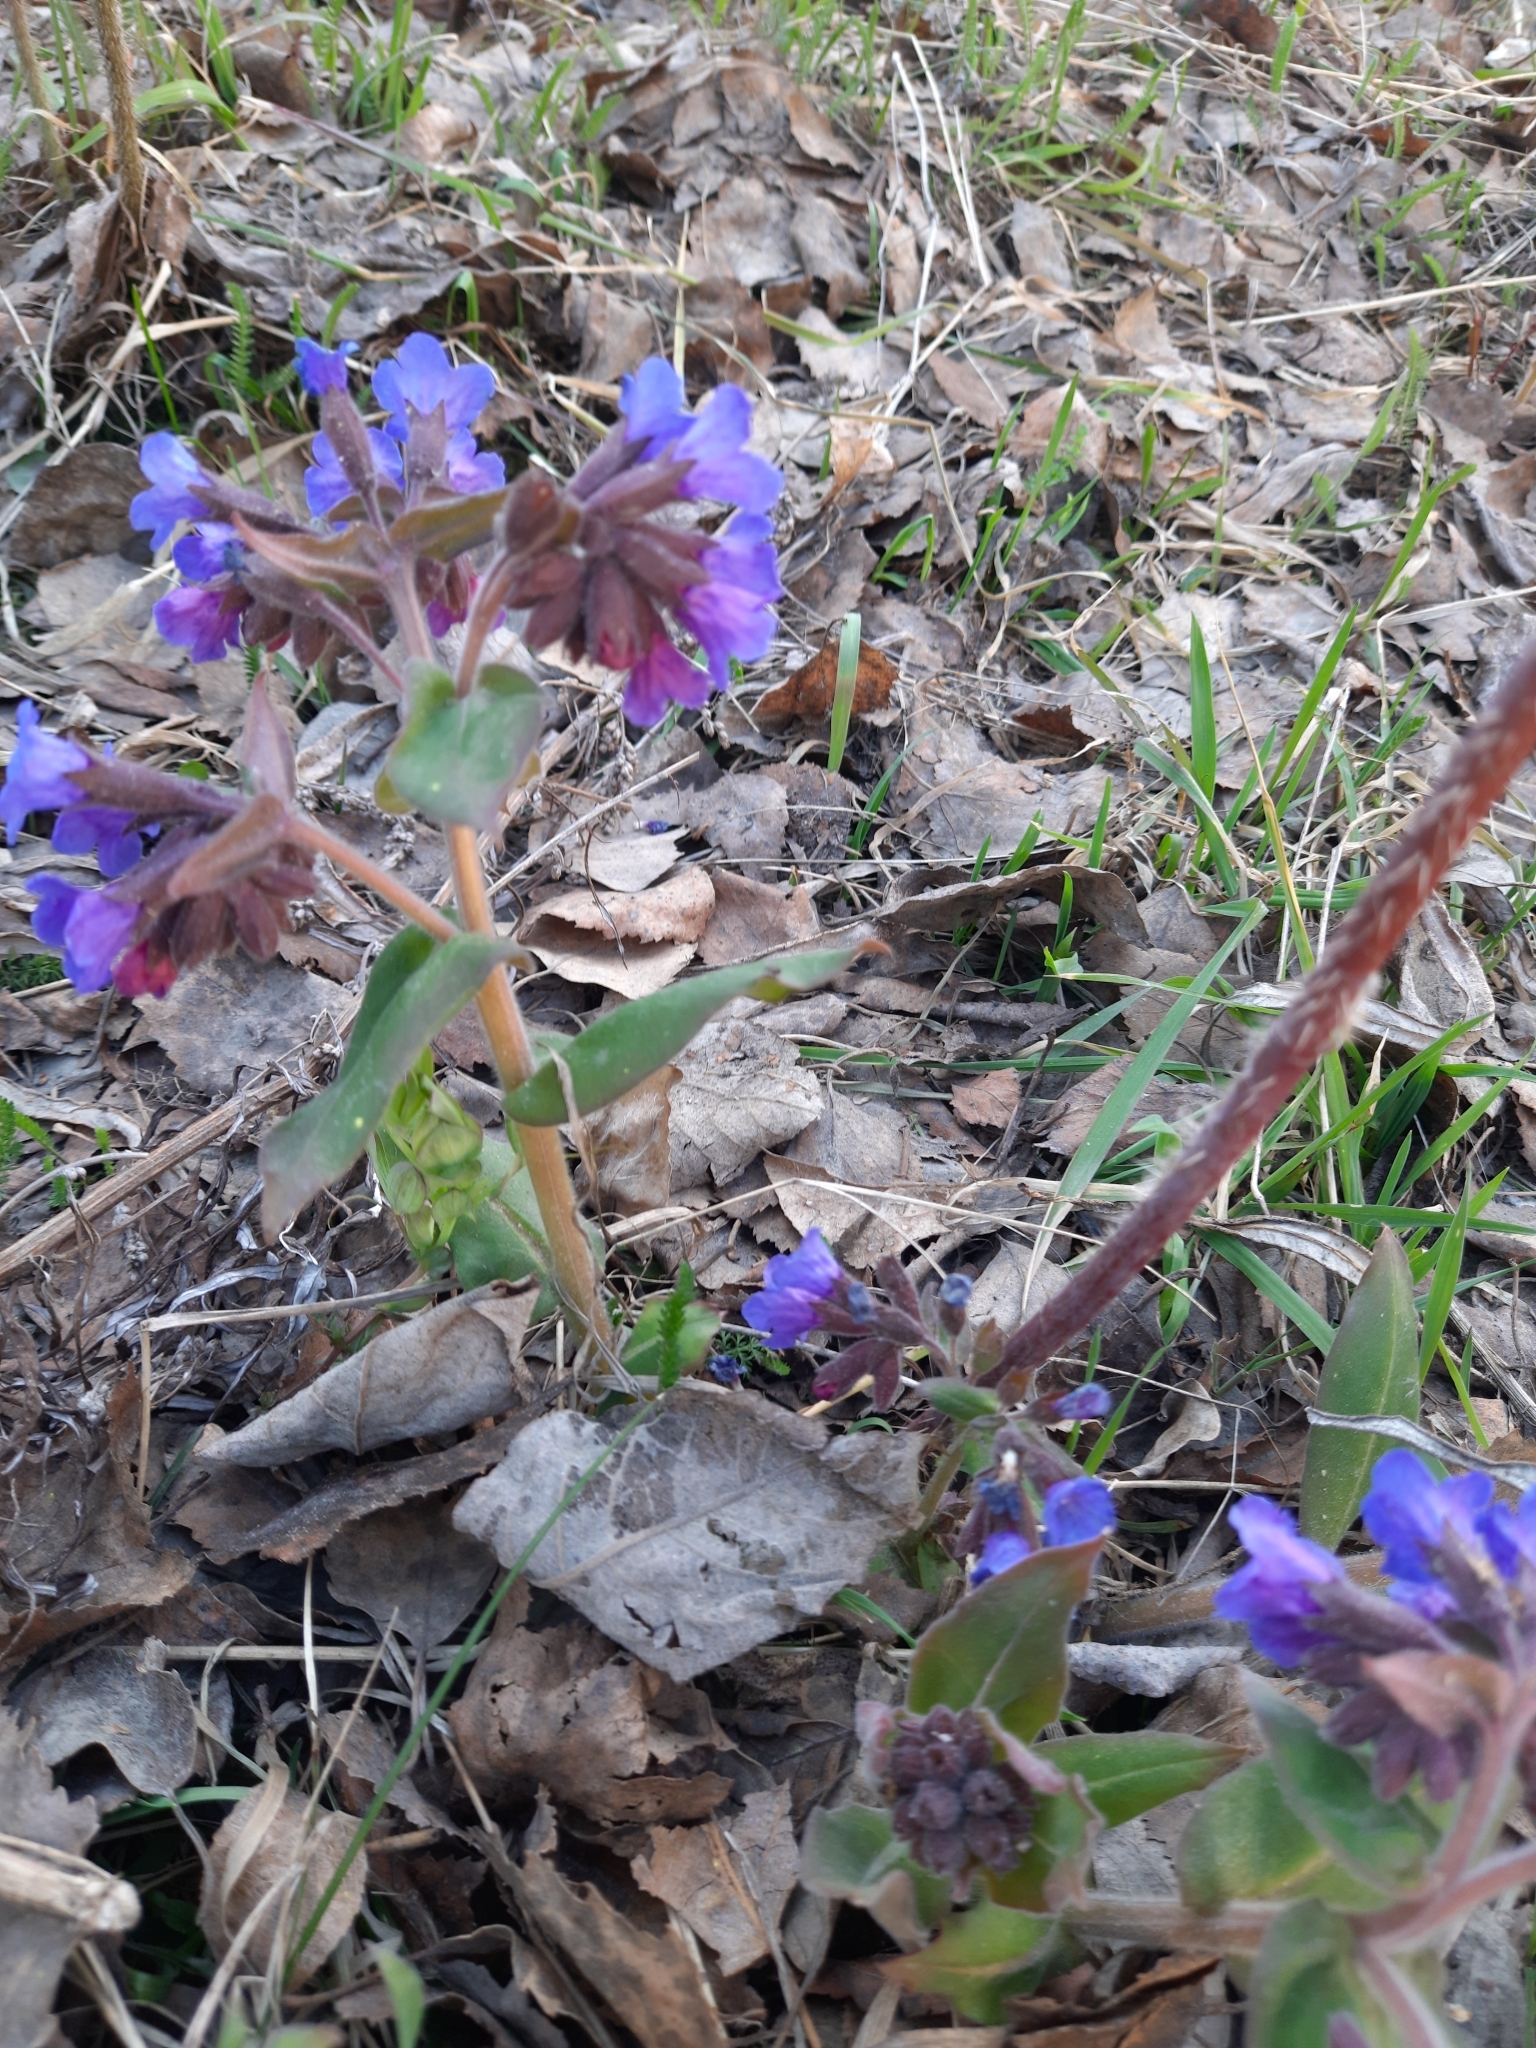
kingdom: Plantae
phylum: Tracheophyta
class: Magnoliopsida
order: Boraginales
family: Boraginaceae
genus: Pulmonaria
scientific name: Pulmonaria mollis
